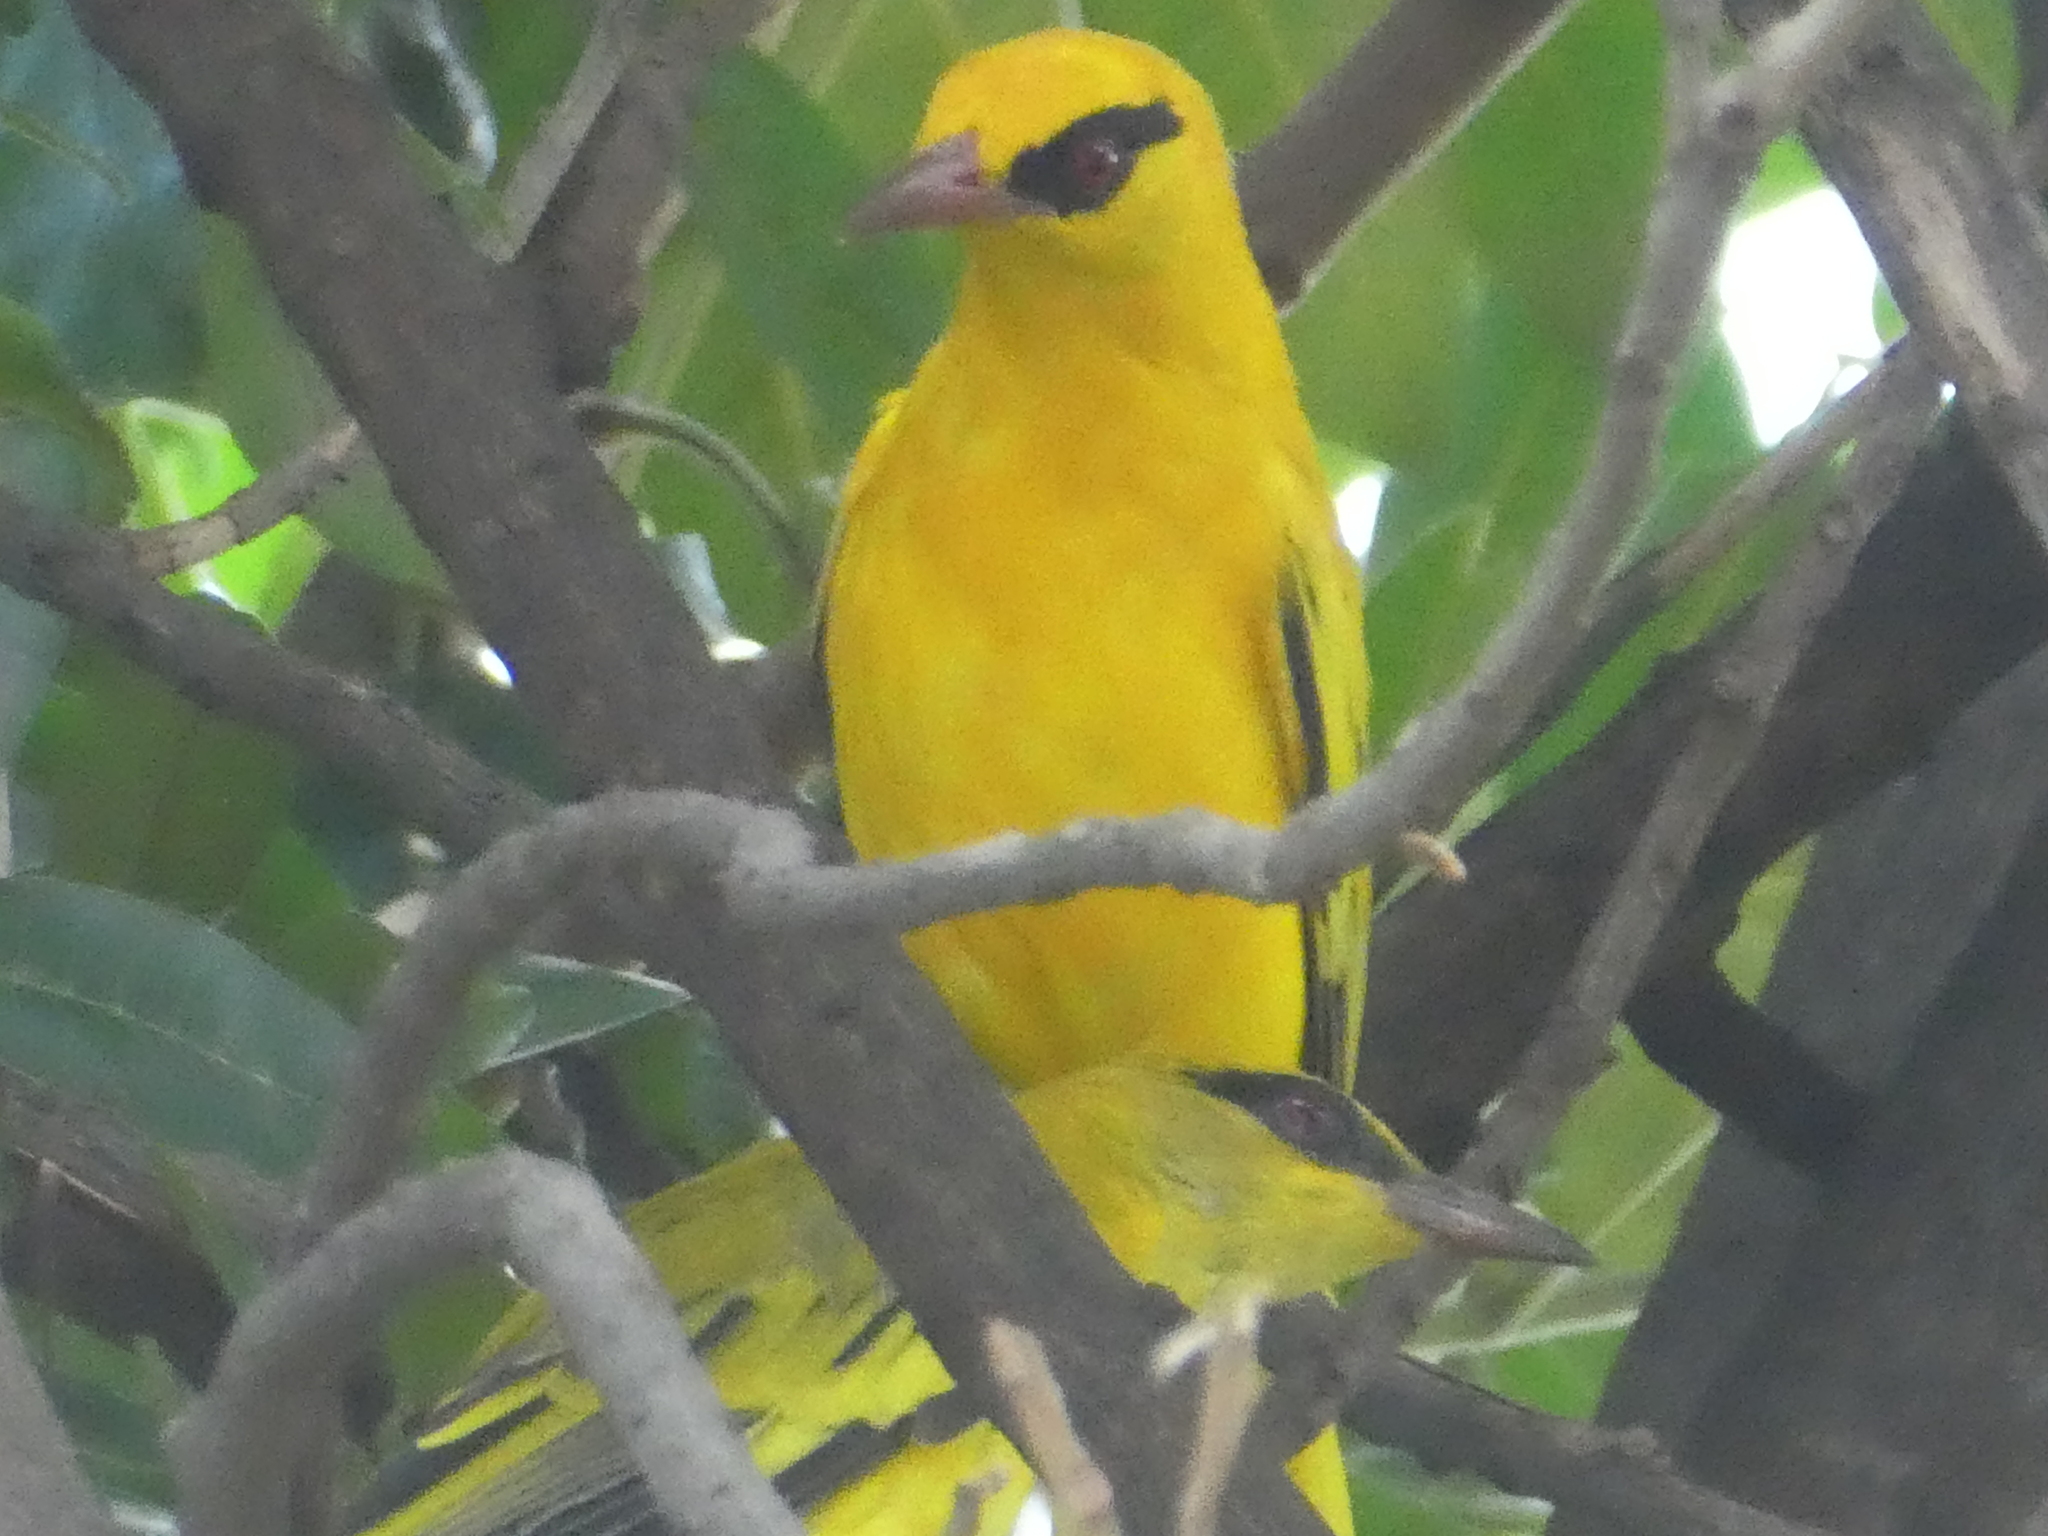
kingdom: Animalia
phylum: Chordata
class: Aves
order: Passeriformes
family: Oriolidae
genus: Oriolus
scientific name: Oriolus auratus
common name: African golden oriole
